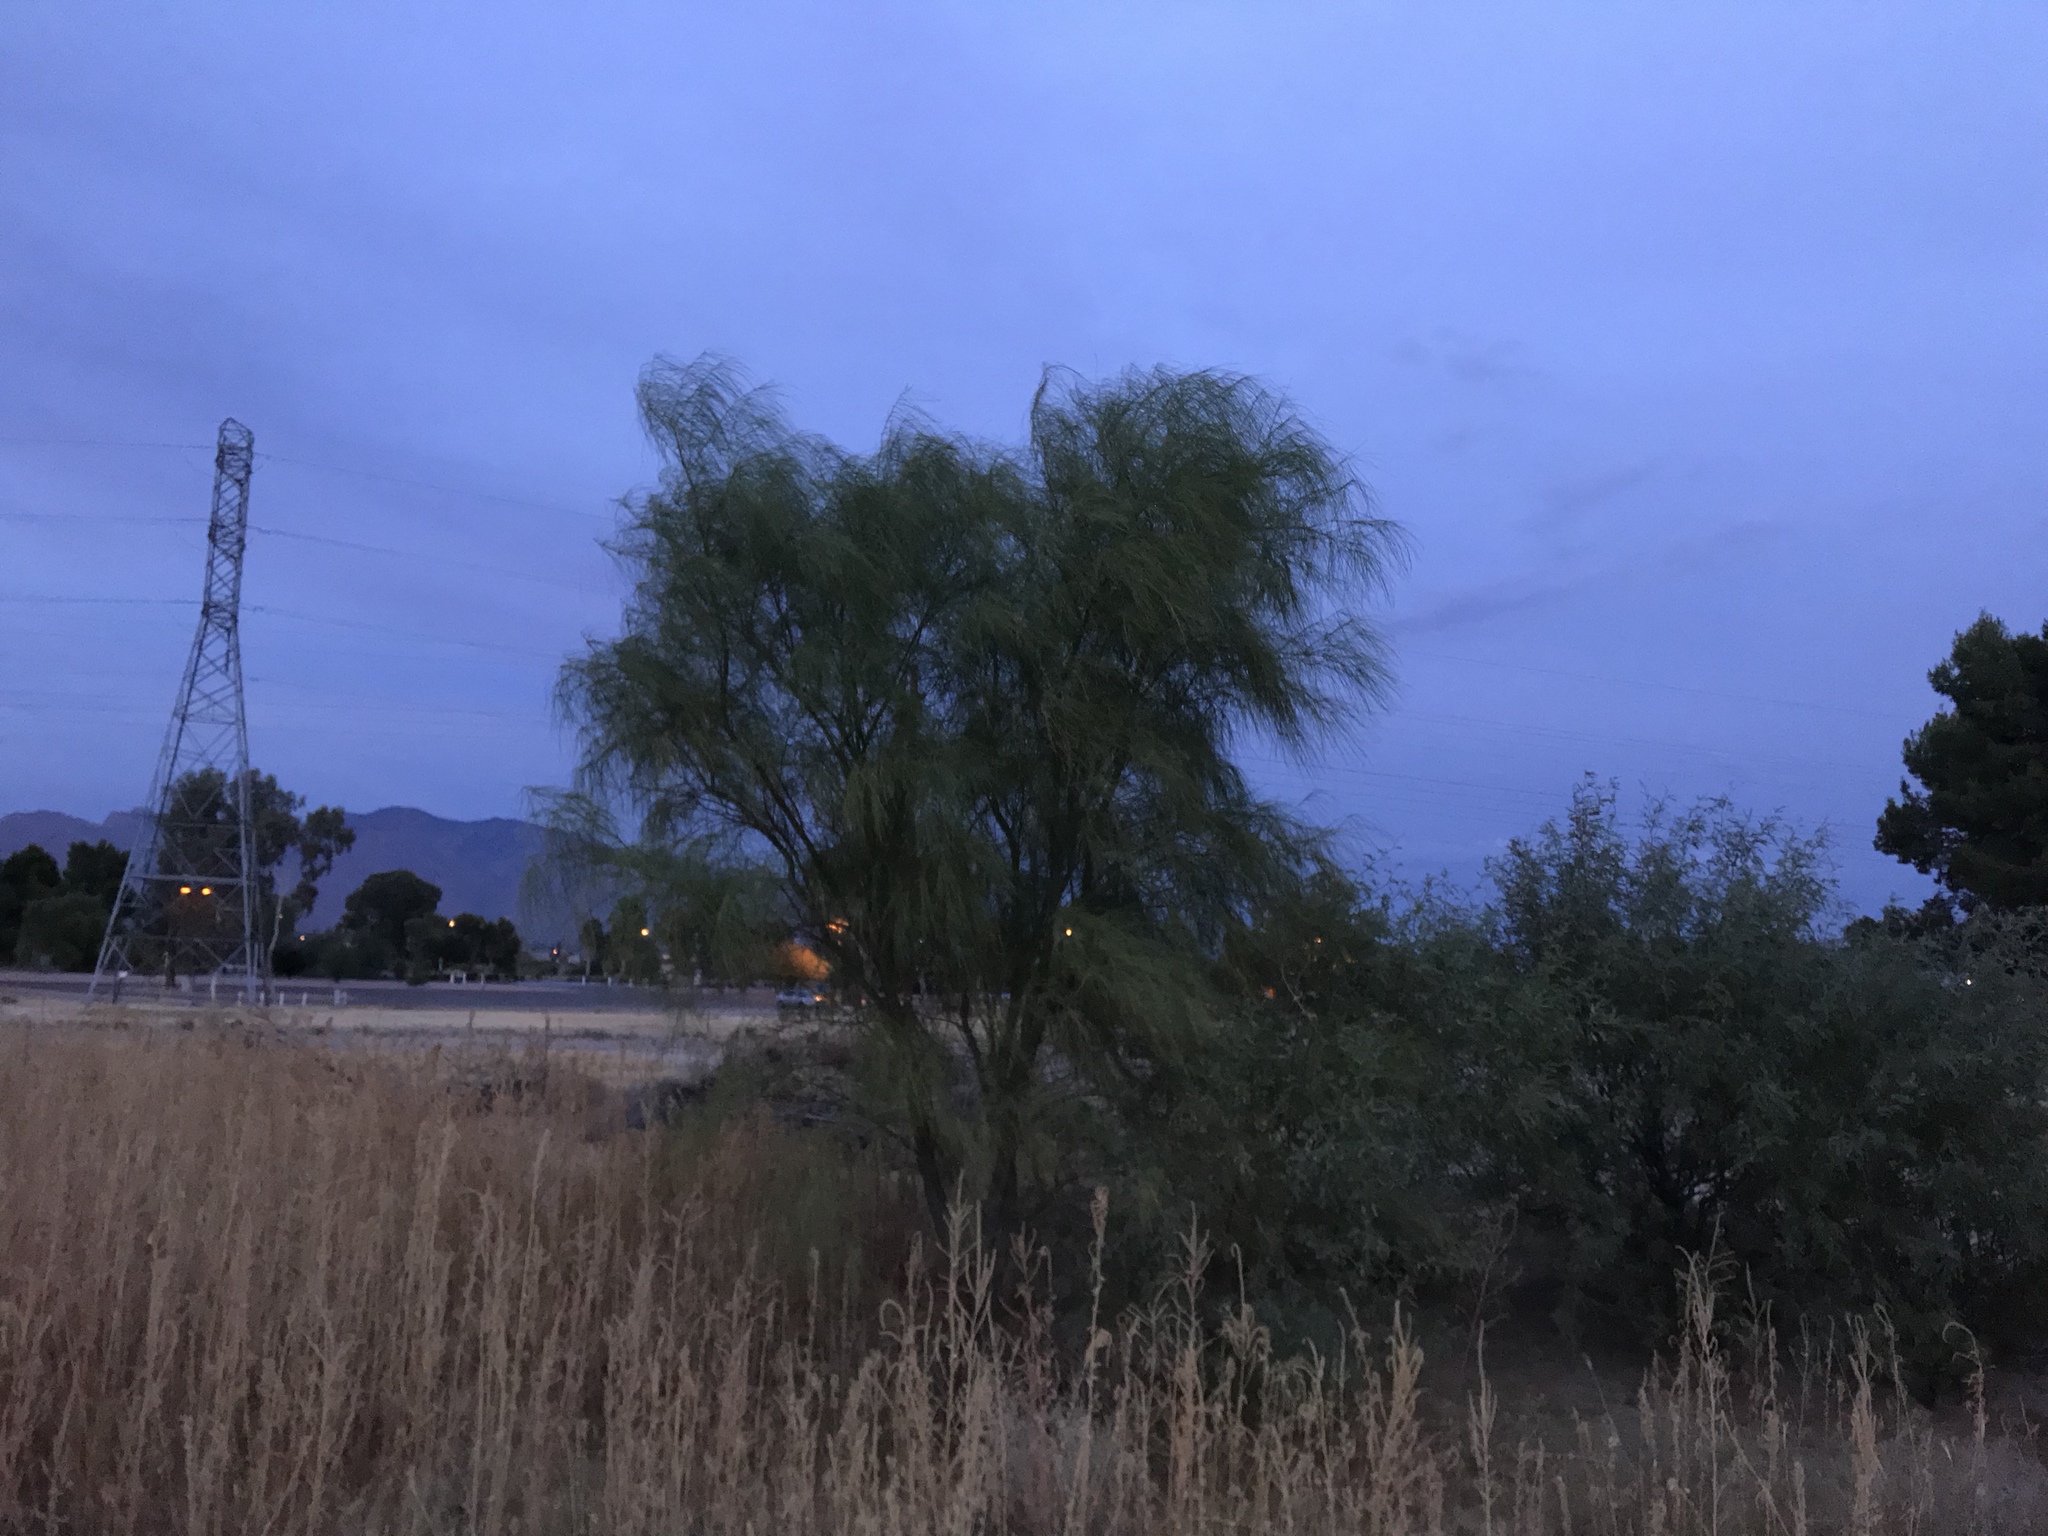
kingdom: Plantae
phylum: Tracheophyta
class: Magnoliopsida
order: Fabales
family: Fabaceae
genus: Parkinsonia
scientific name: Parkinsonia aculeata
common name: Jerusalem thorn
